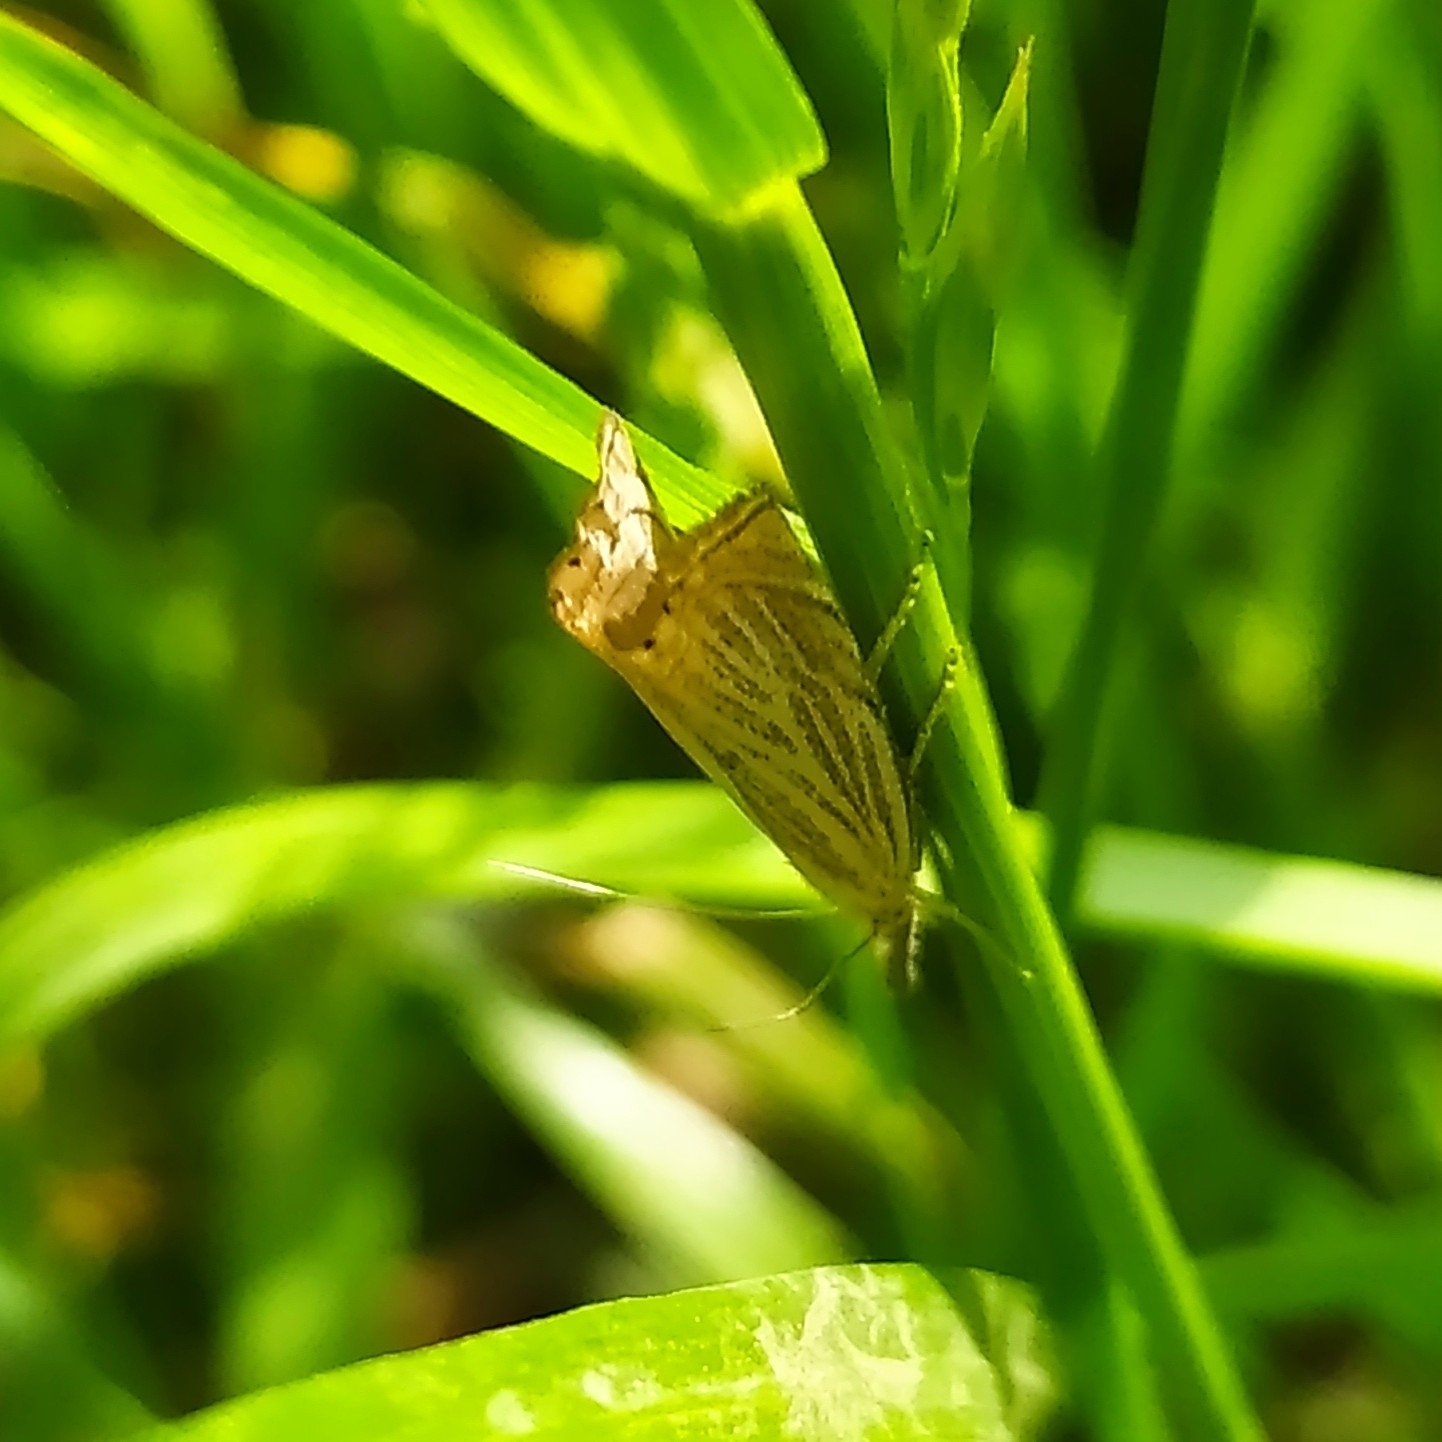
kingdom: Animalia
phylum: Arthropoda
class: Insecta
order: Lepidoptera
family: Crambidae
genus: Chrysoteuchia
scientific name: Chrysoteuchia culmella
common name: Garden grass-veneer
